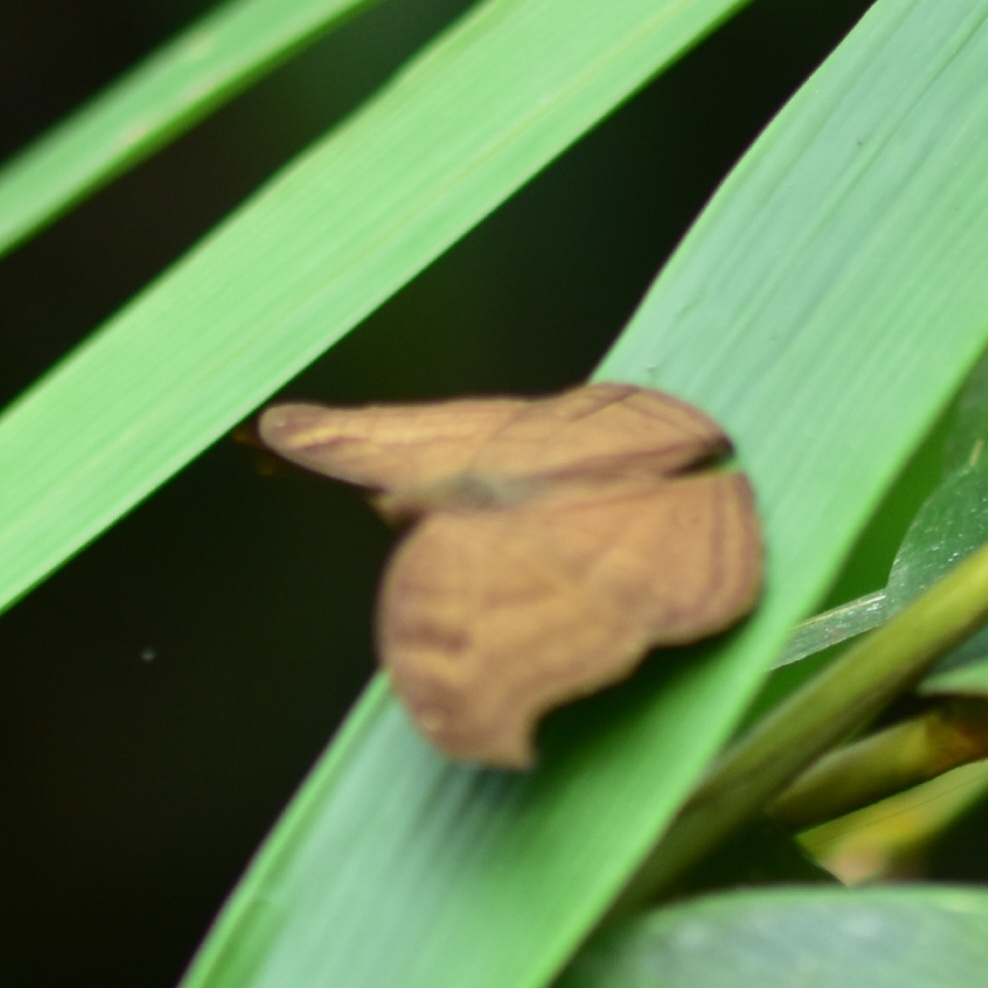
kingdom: Animalia
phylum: Arthropoda
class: Insecta
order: Lepidoptera
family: Nymphalidae
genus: Junonia
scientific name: Junonia iphita
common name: Chocolate pansy
